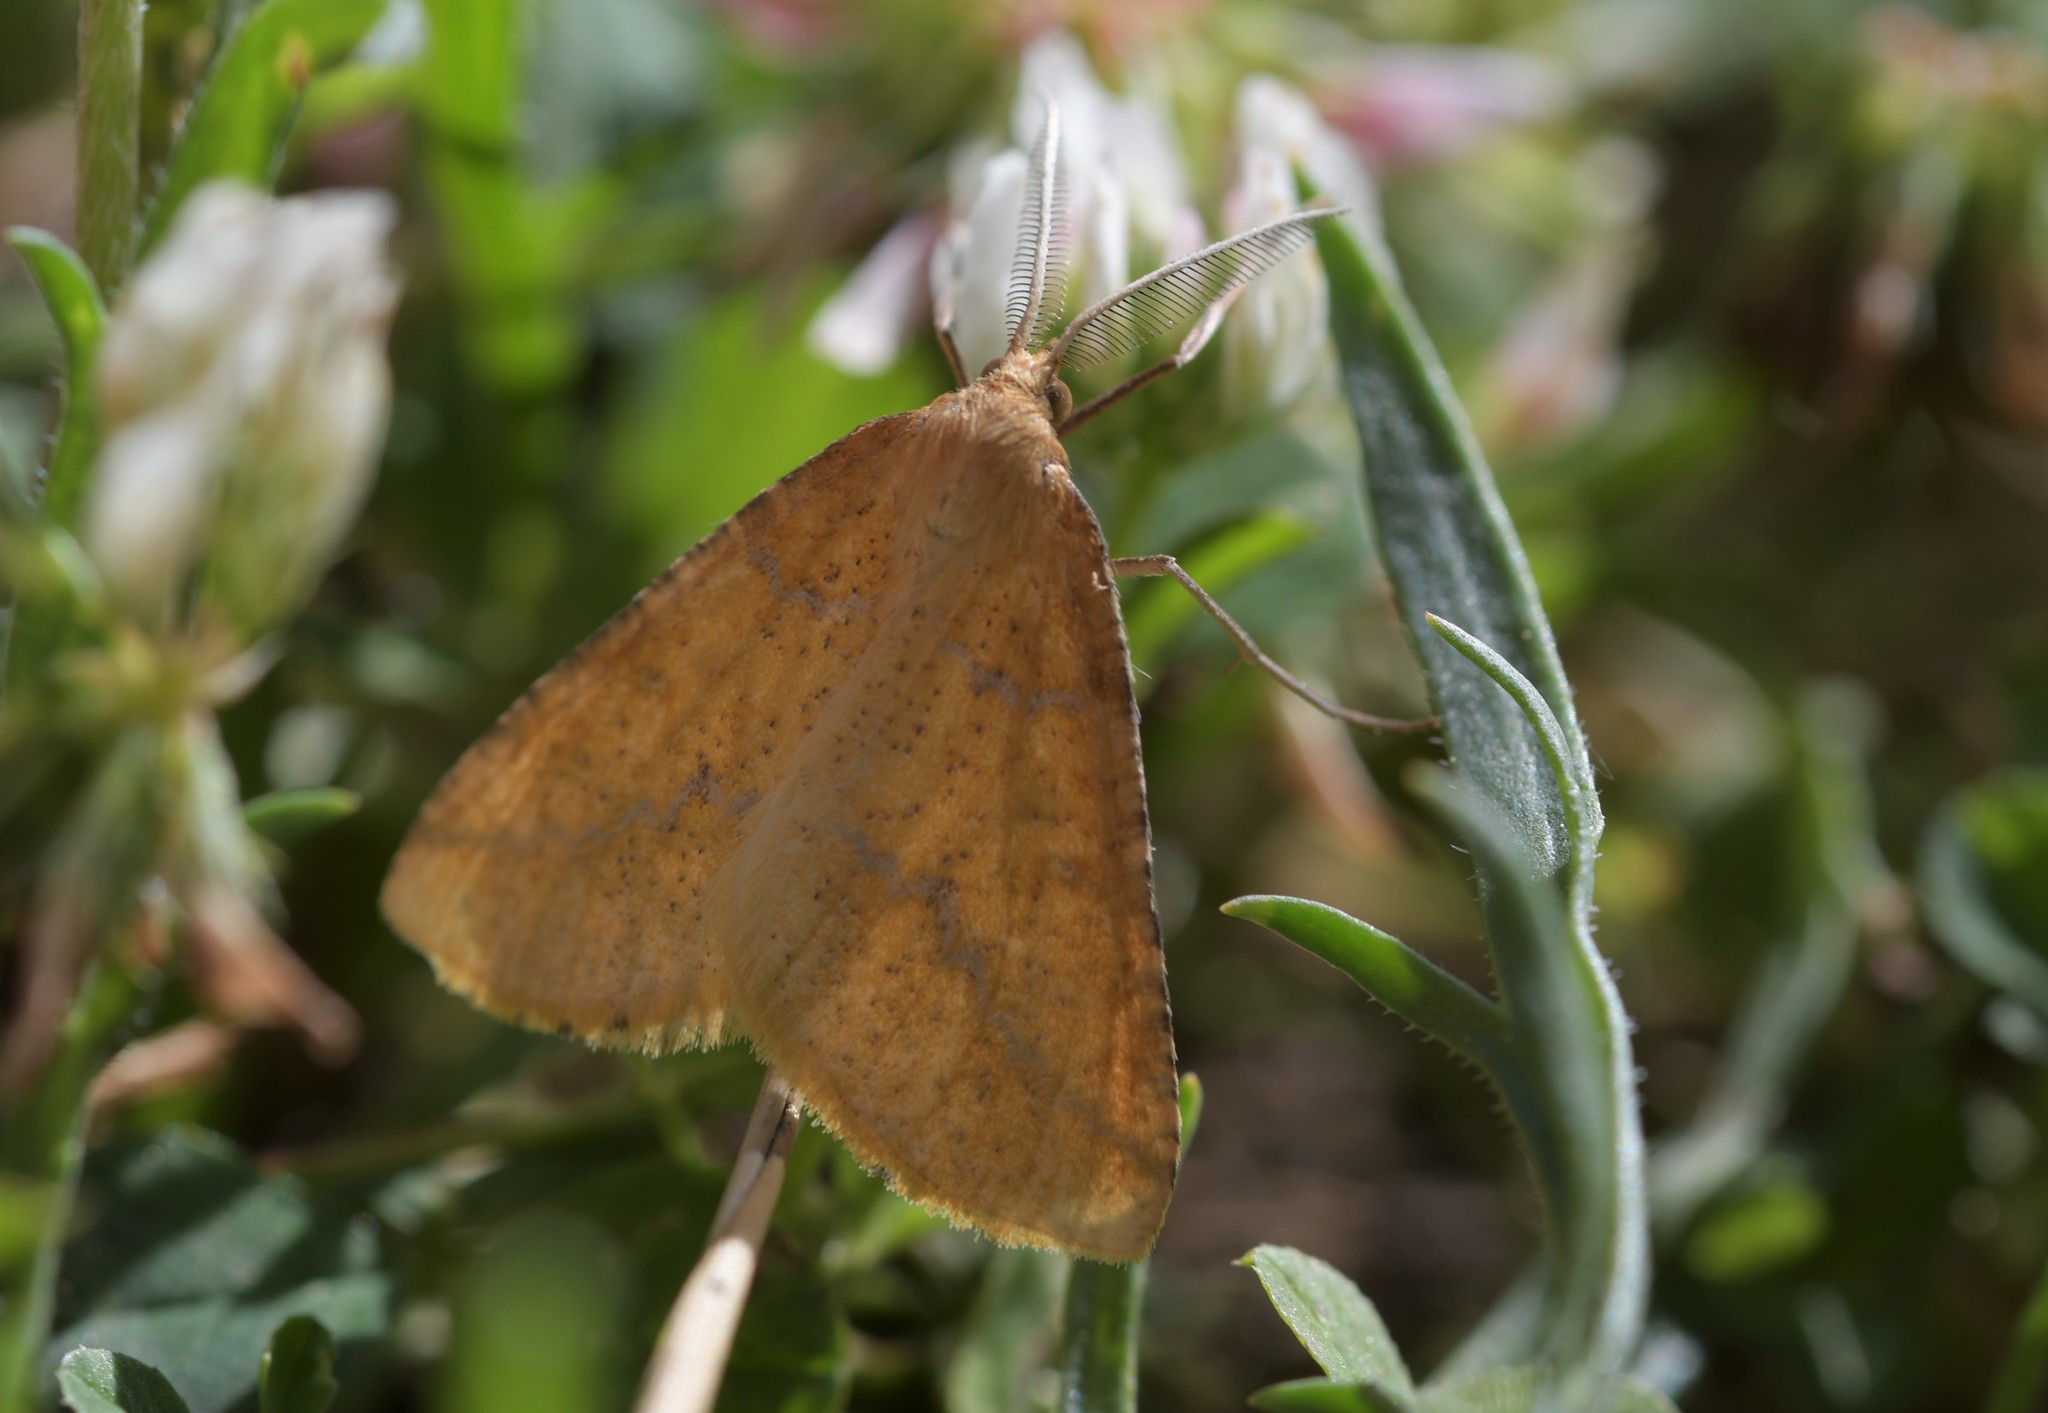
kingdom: Animalia
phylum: Arthropoda
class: Insecta
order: Lepidoptera
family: Geometridae
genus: Aspitates
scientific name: Aspitates ochrearia
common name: Yellow belle
